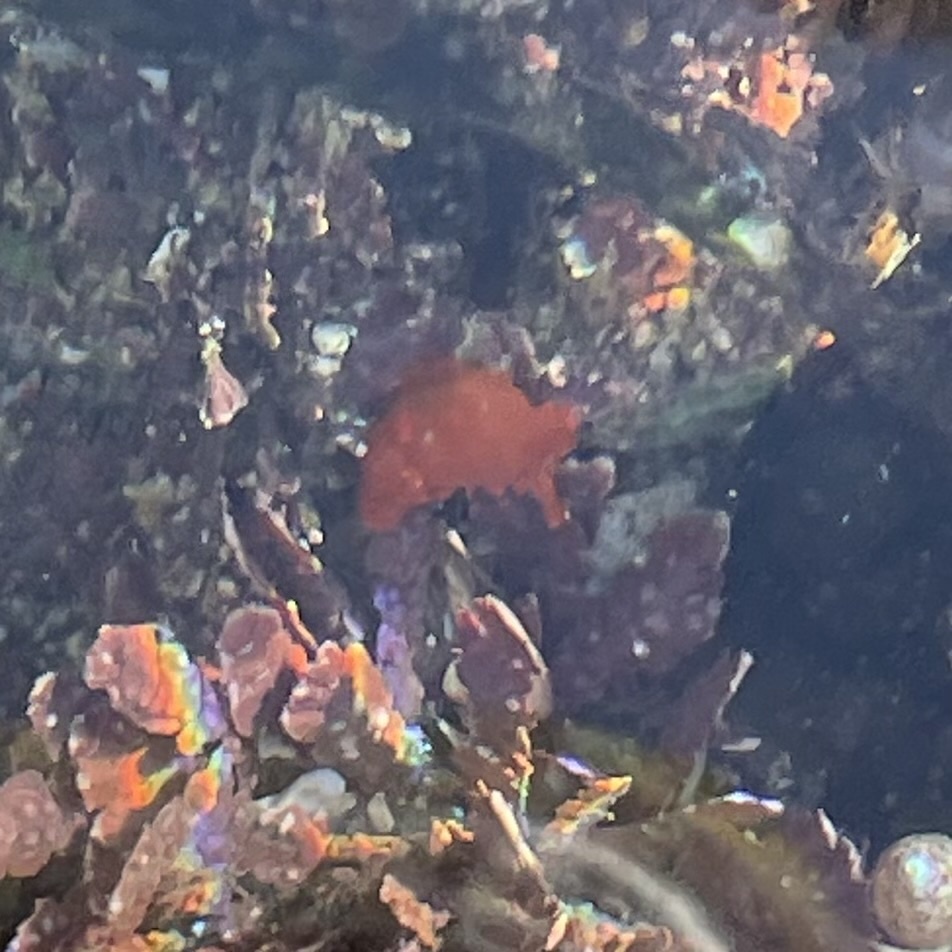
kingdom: Animalia
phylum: Mollusca
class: Gastropoda
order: Nudibranchia
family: Polyceridae
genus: Triopha
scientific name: Triopha maculata
